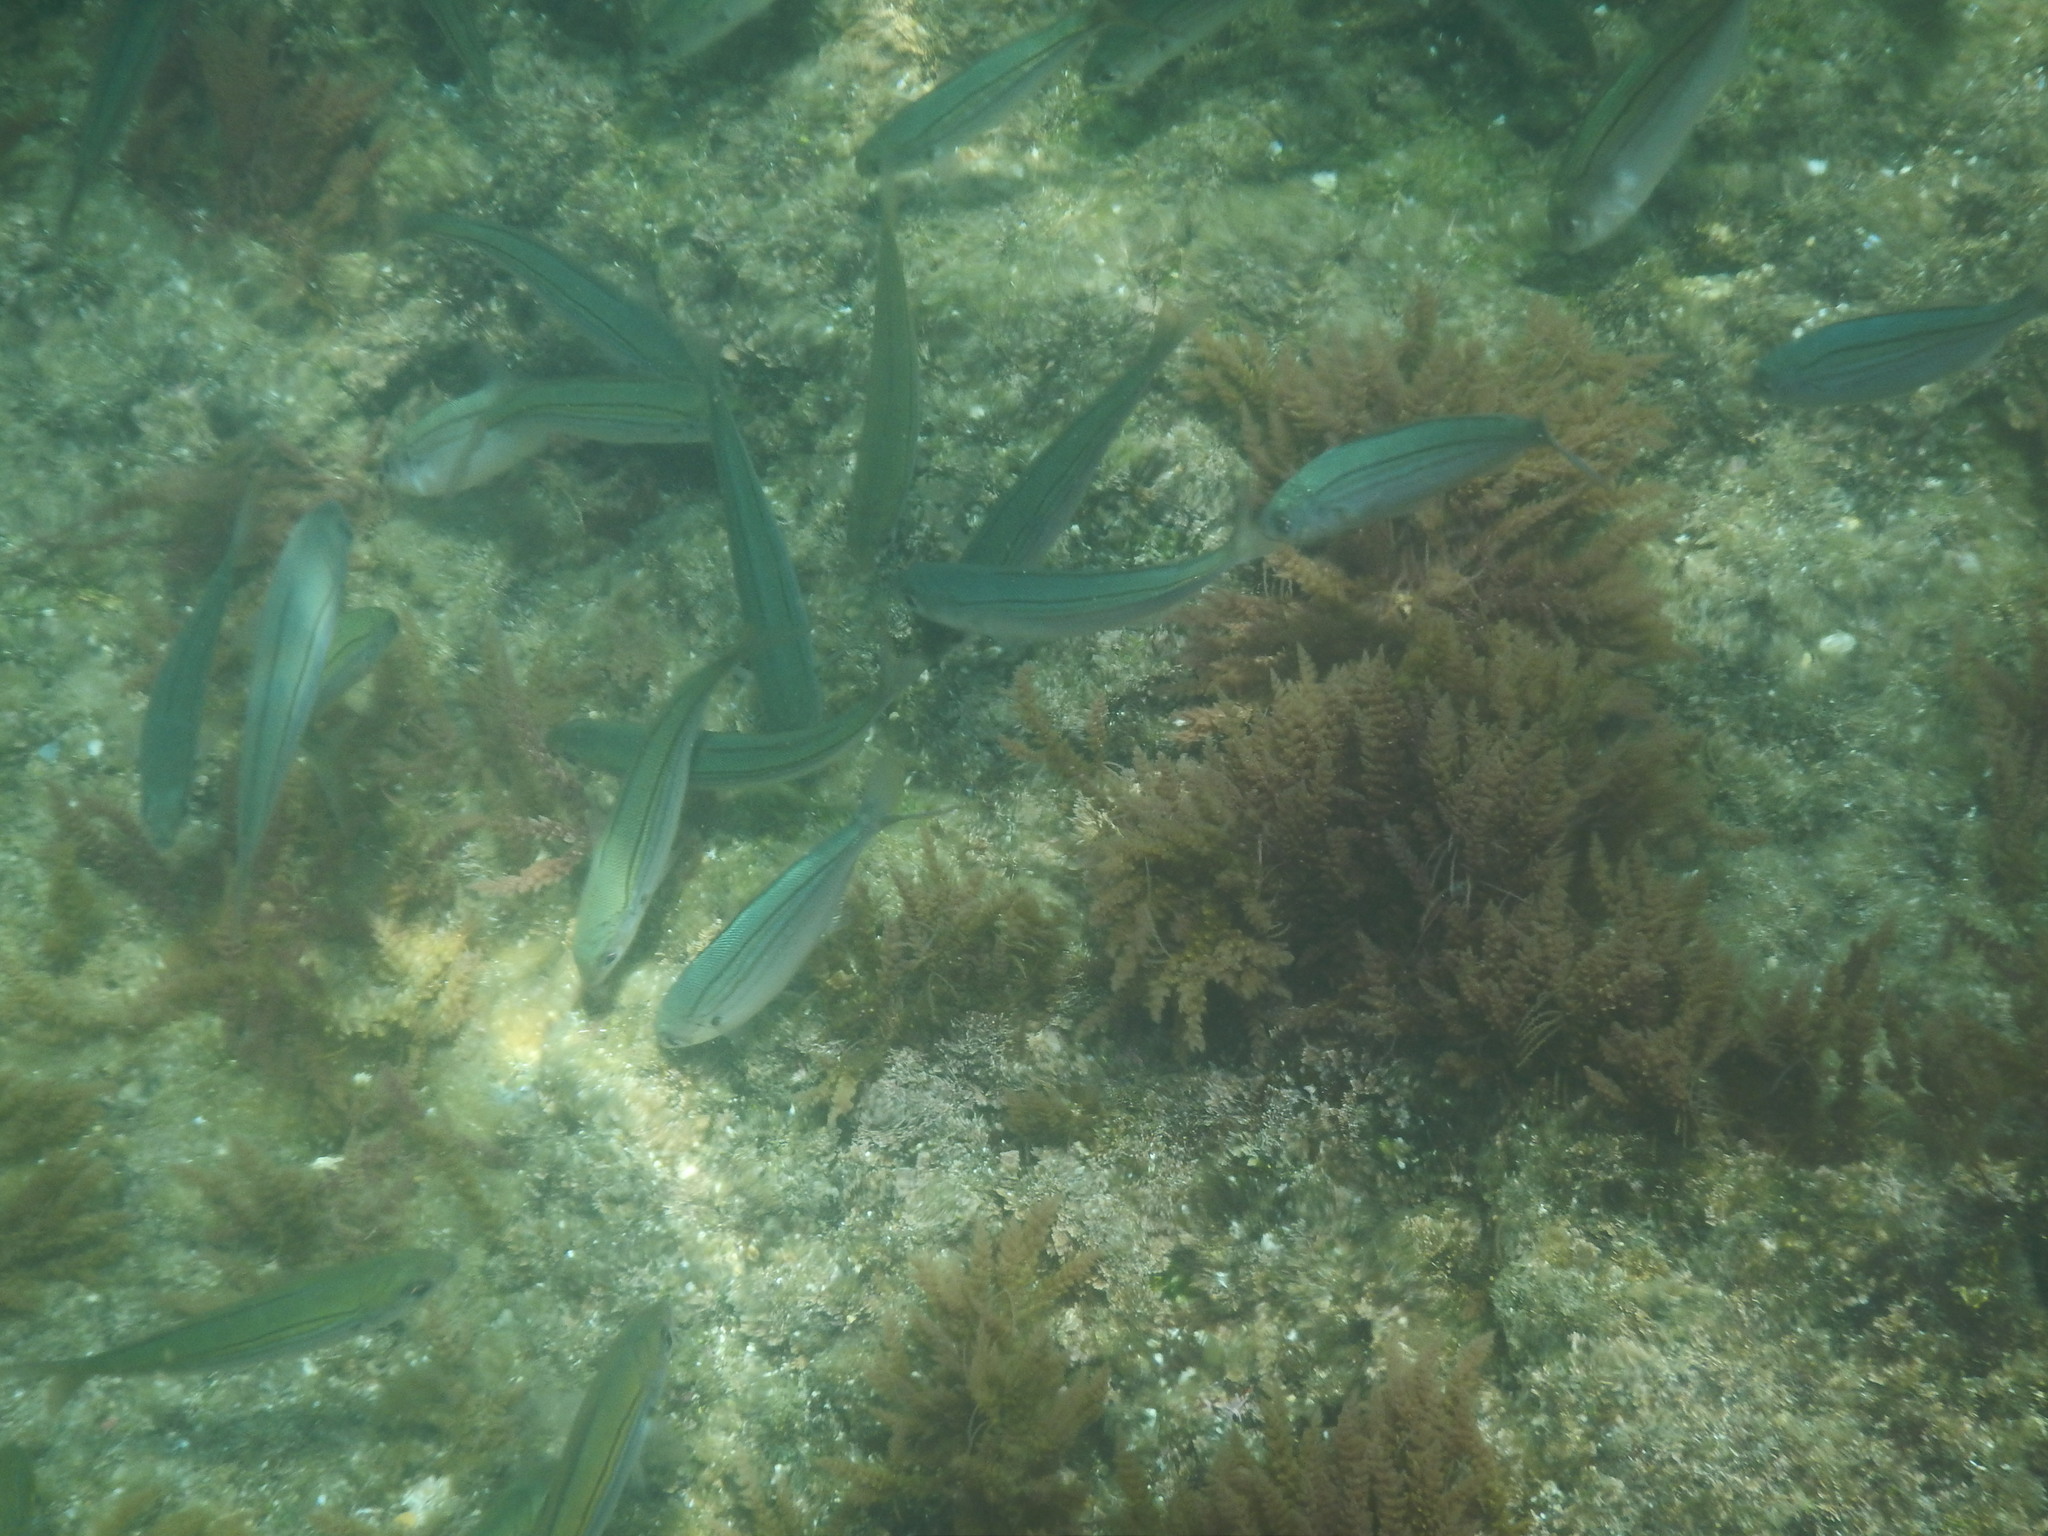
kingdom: Animalia
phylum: Chordata
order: Perciformes
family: Sparidae
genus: Boops
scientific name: Boops boops
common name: Bogue
